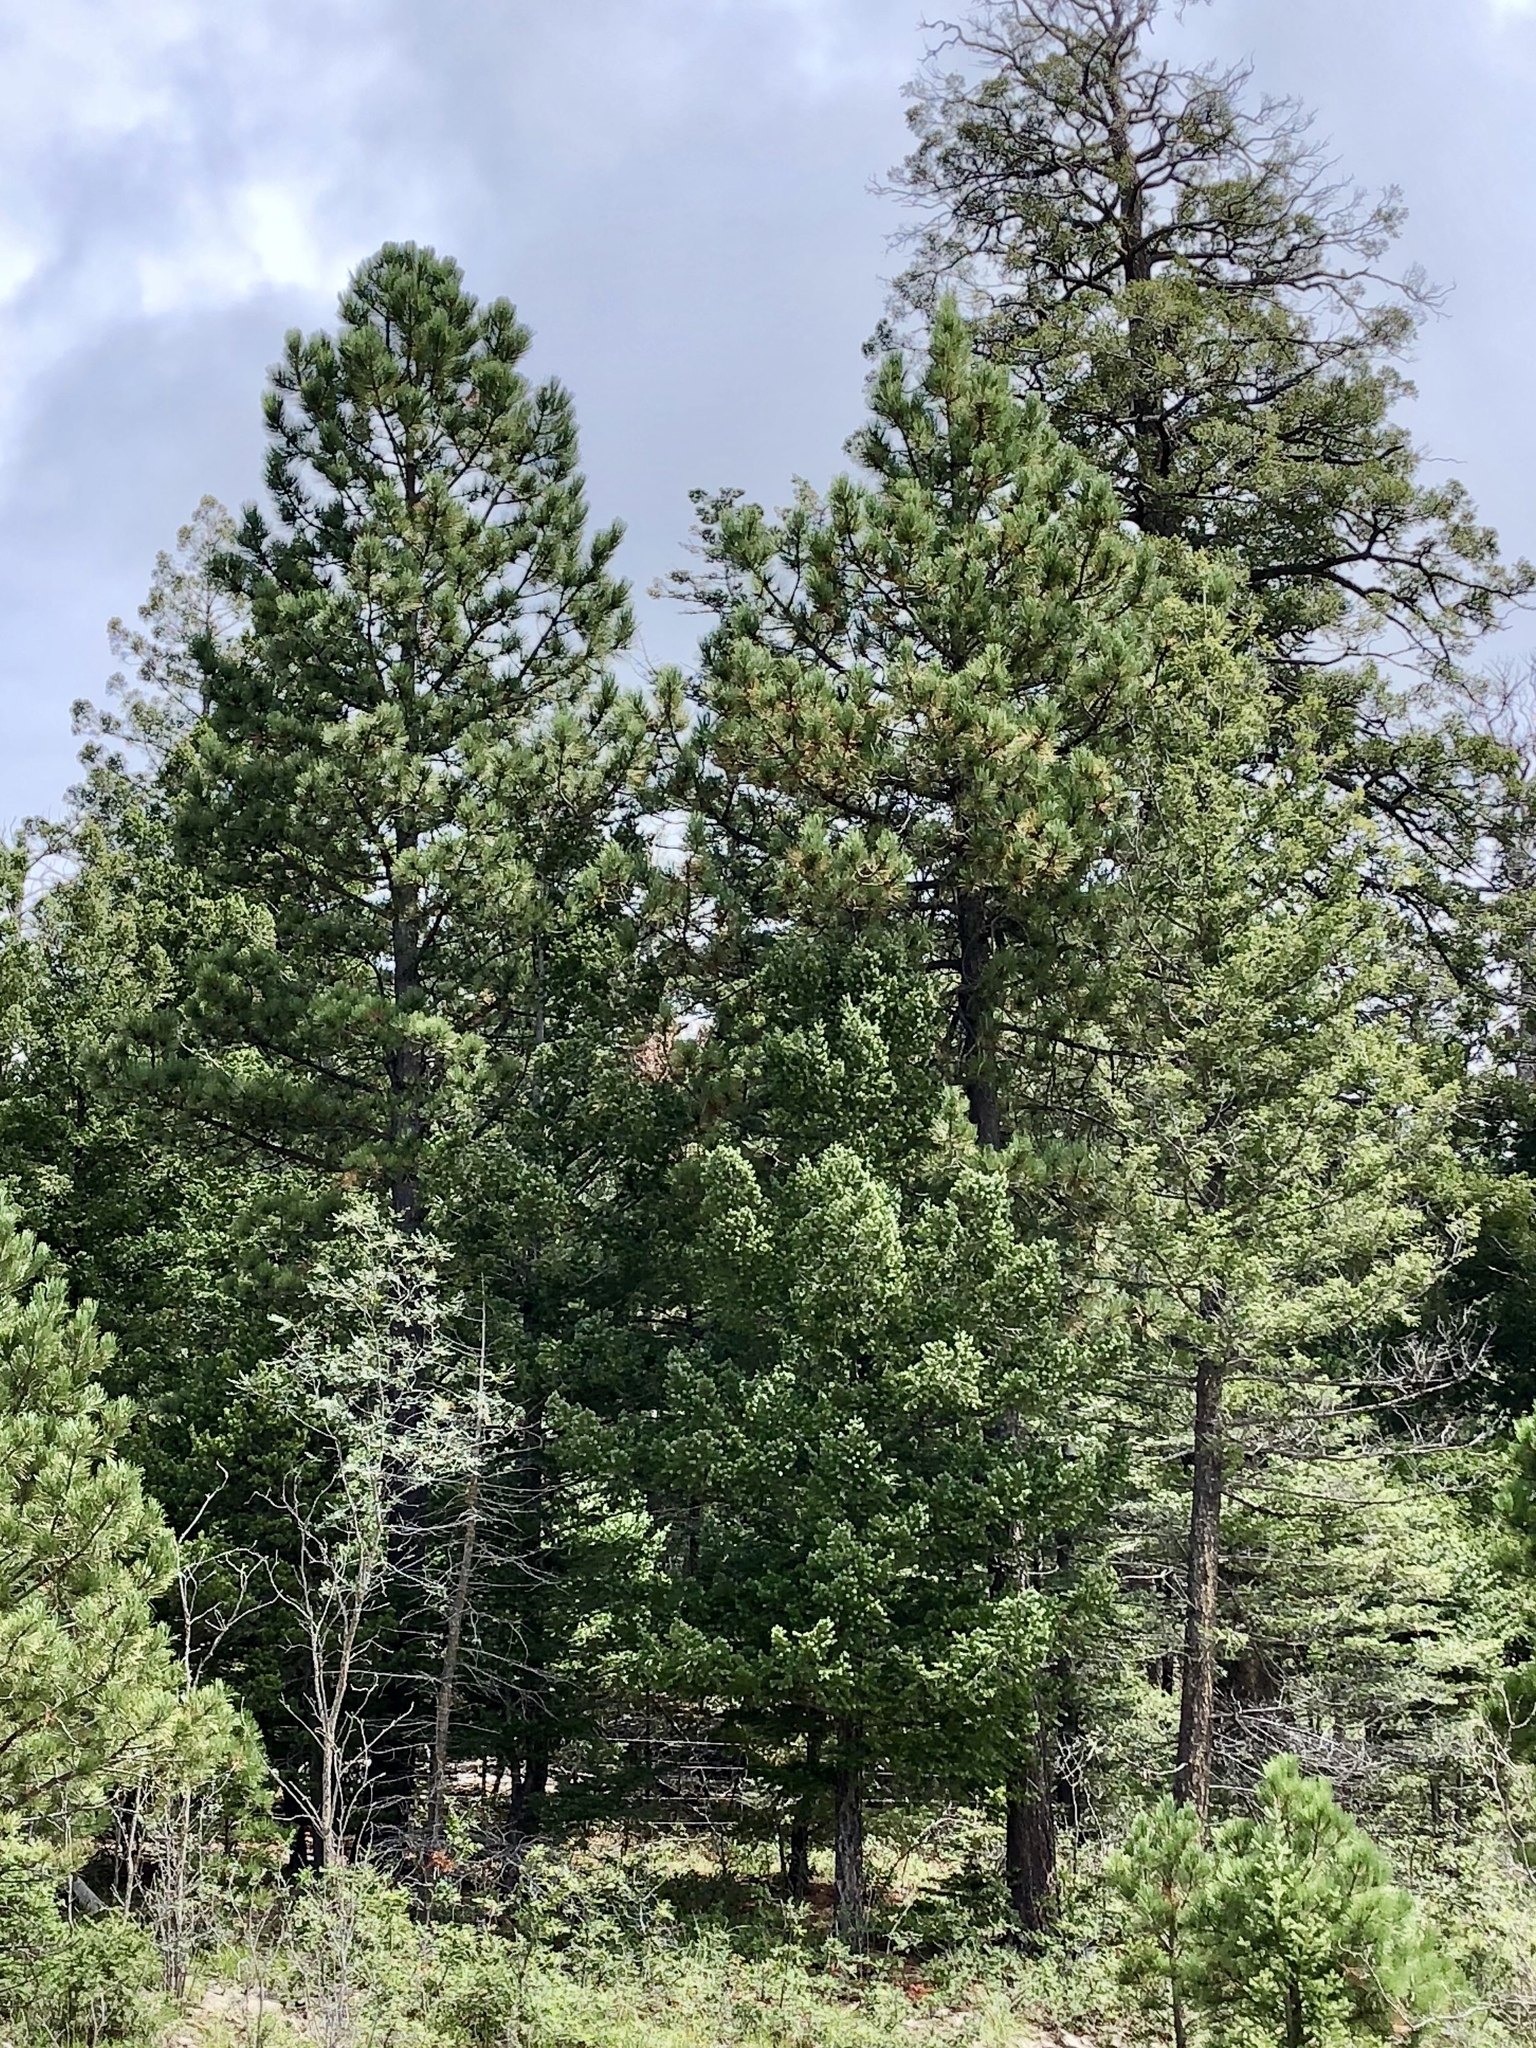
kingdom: Plantae
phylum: Tracheophyta
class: Pinopsida
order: Pinales
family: Pinaceae
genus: Pinus
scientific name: Pinus ponderosa
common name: Western yellow-pine
